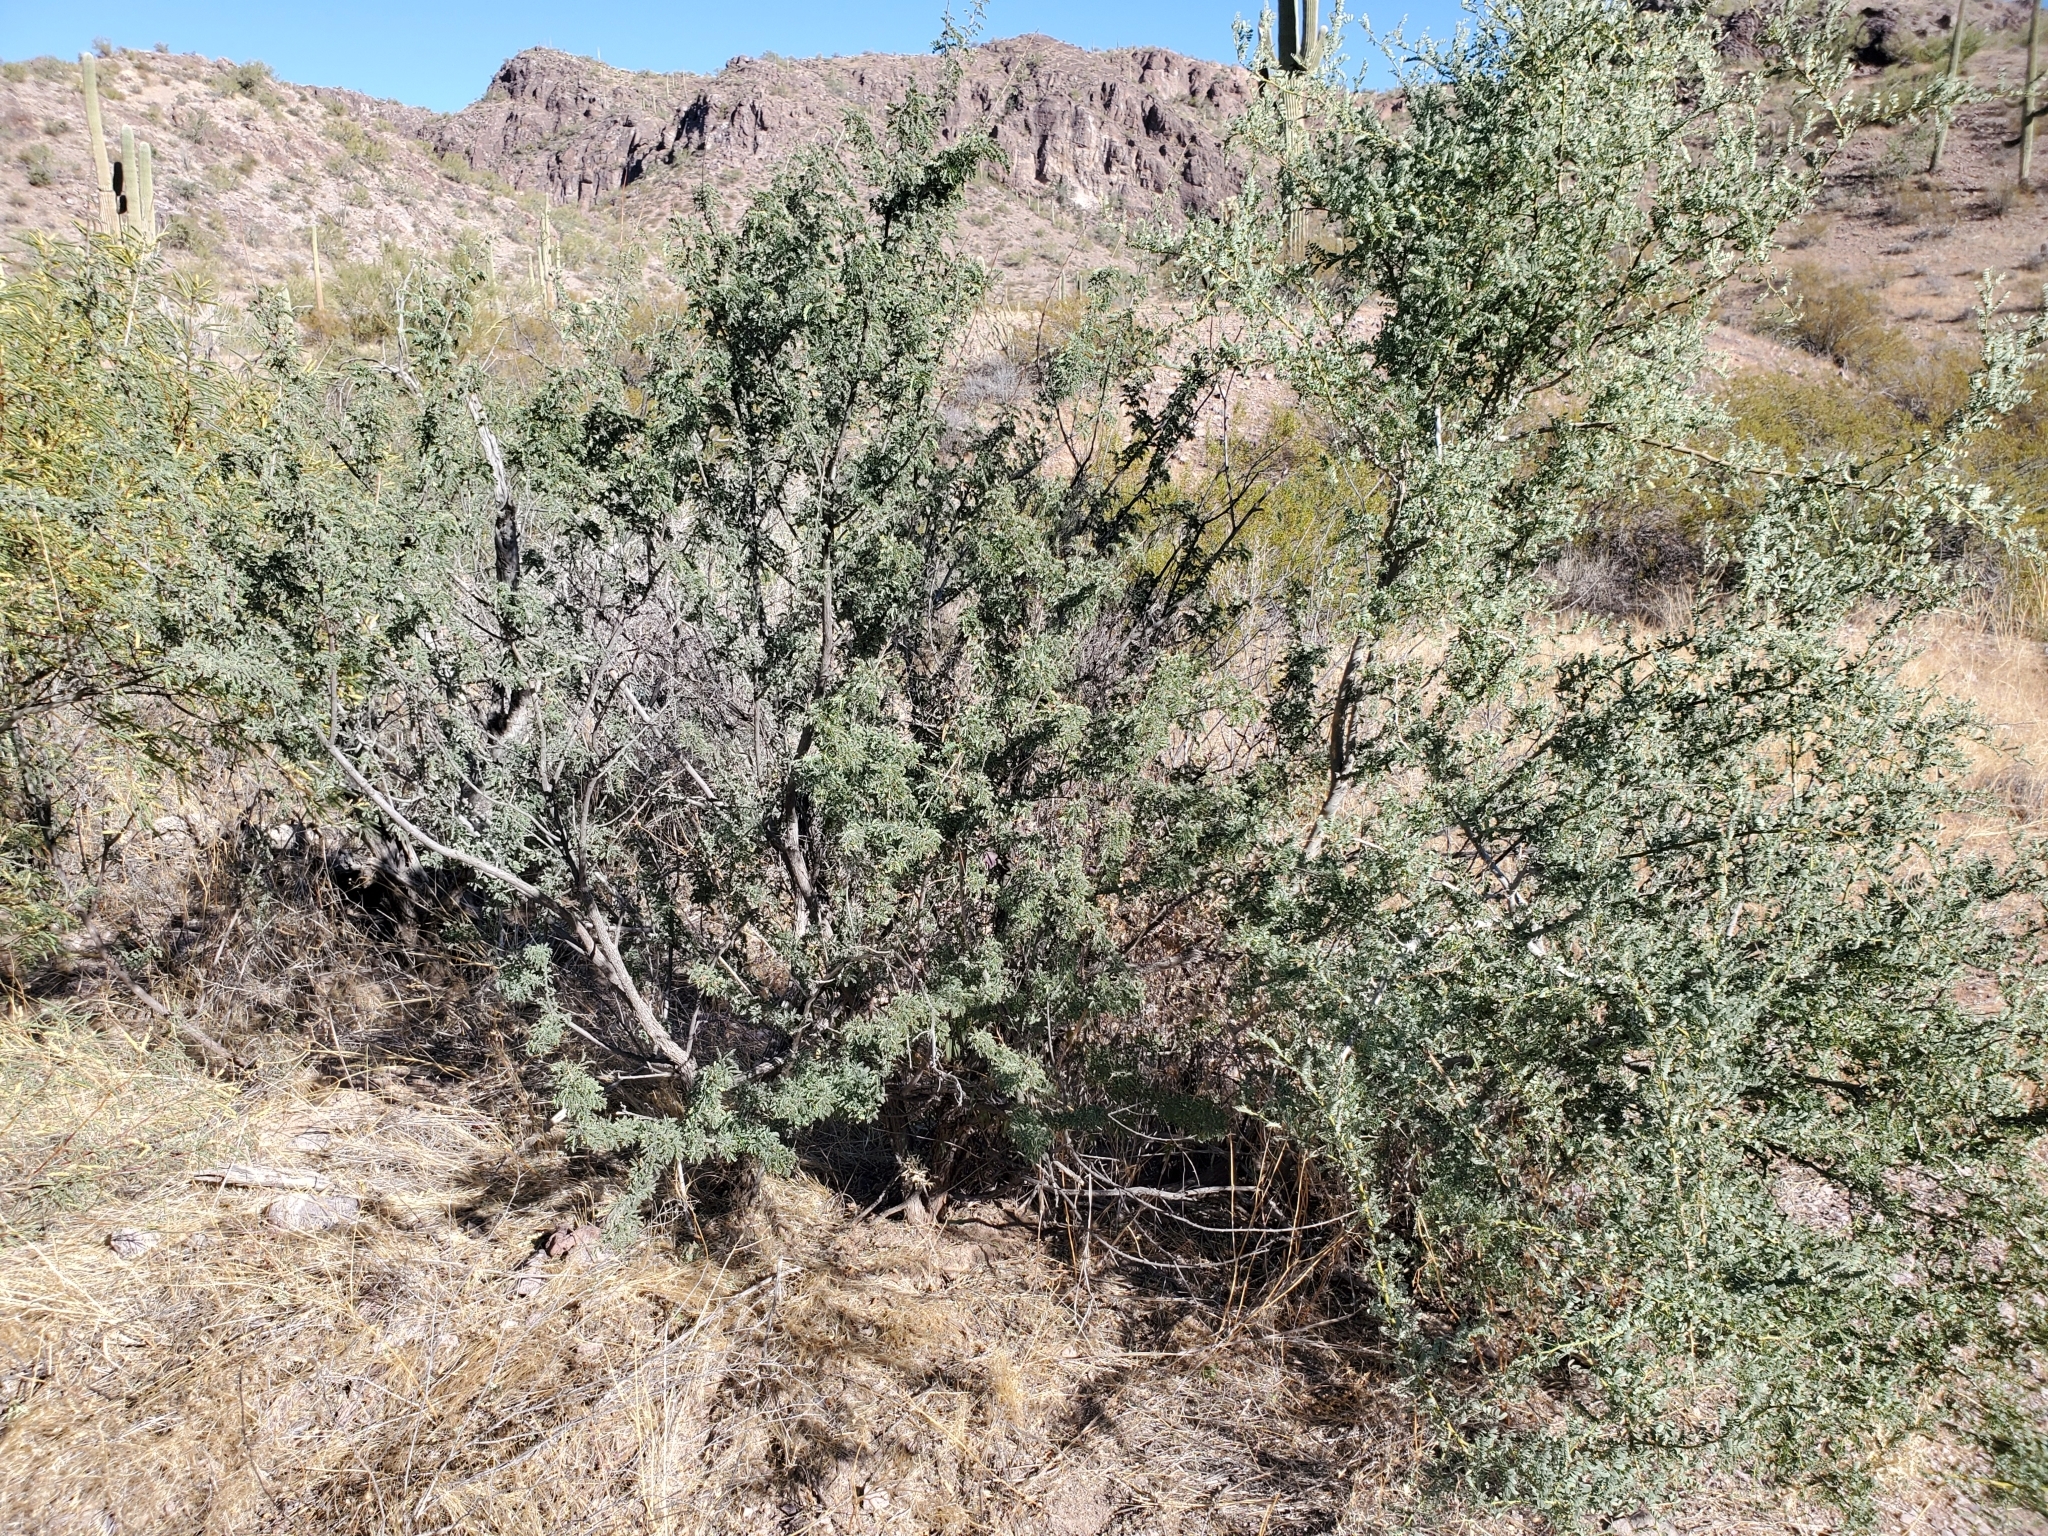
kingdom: Plantae
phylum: Tracheophyta
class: Magnoliopsida
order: Fabales
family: Fabaceae
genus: Olneya
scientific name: Olneya tesota
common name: Desert ironwood
